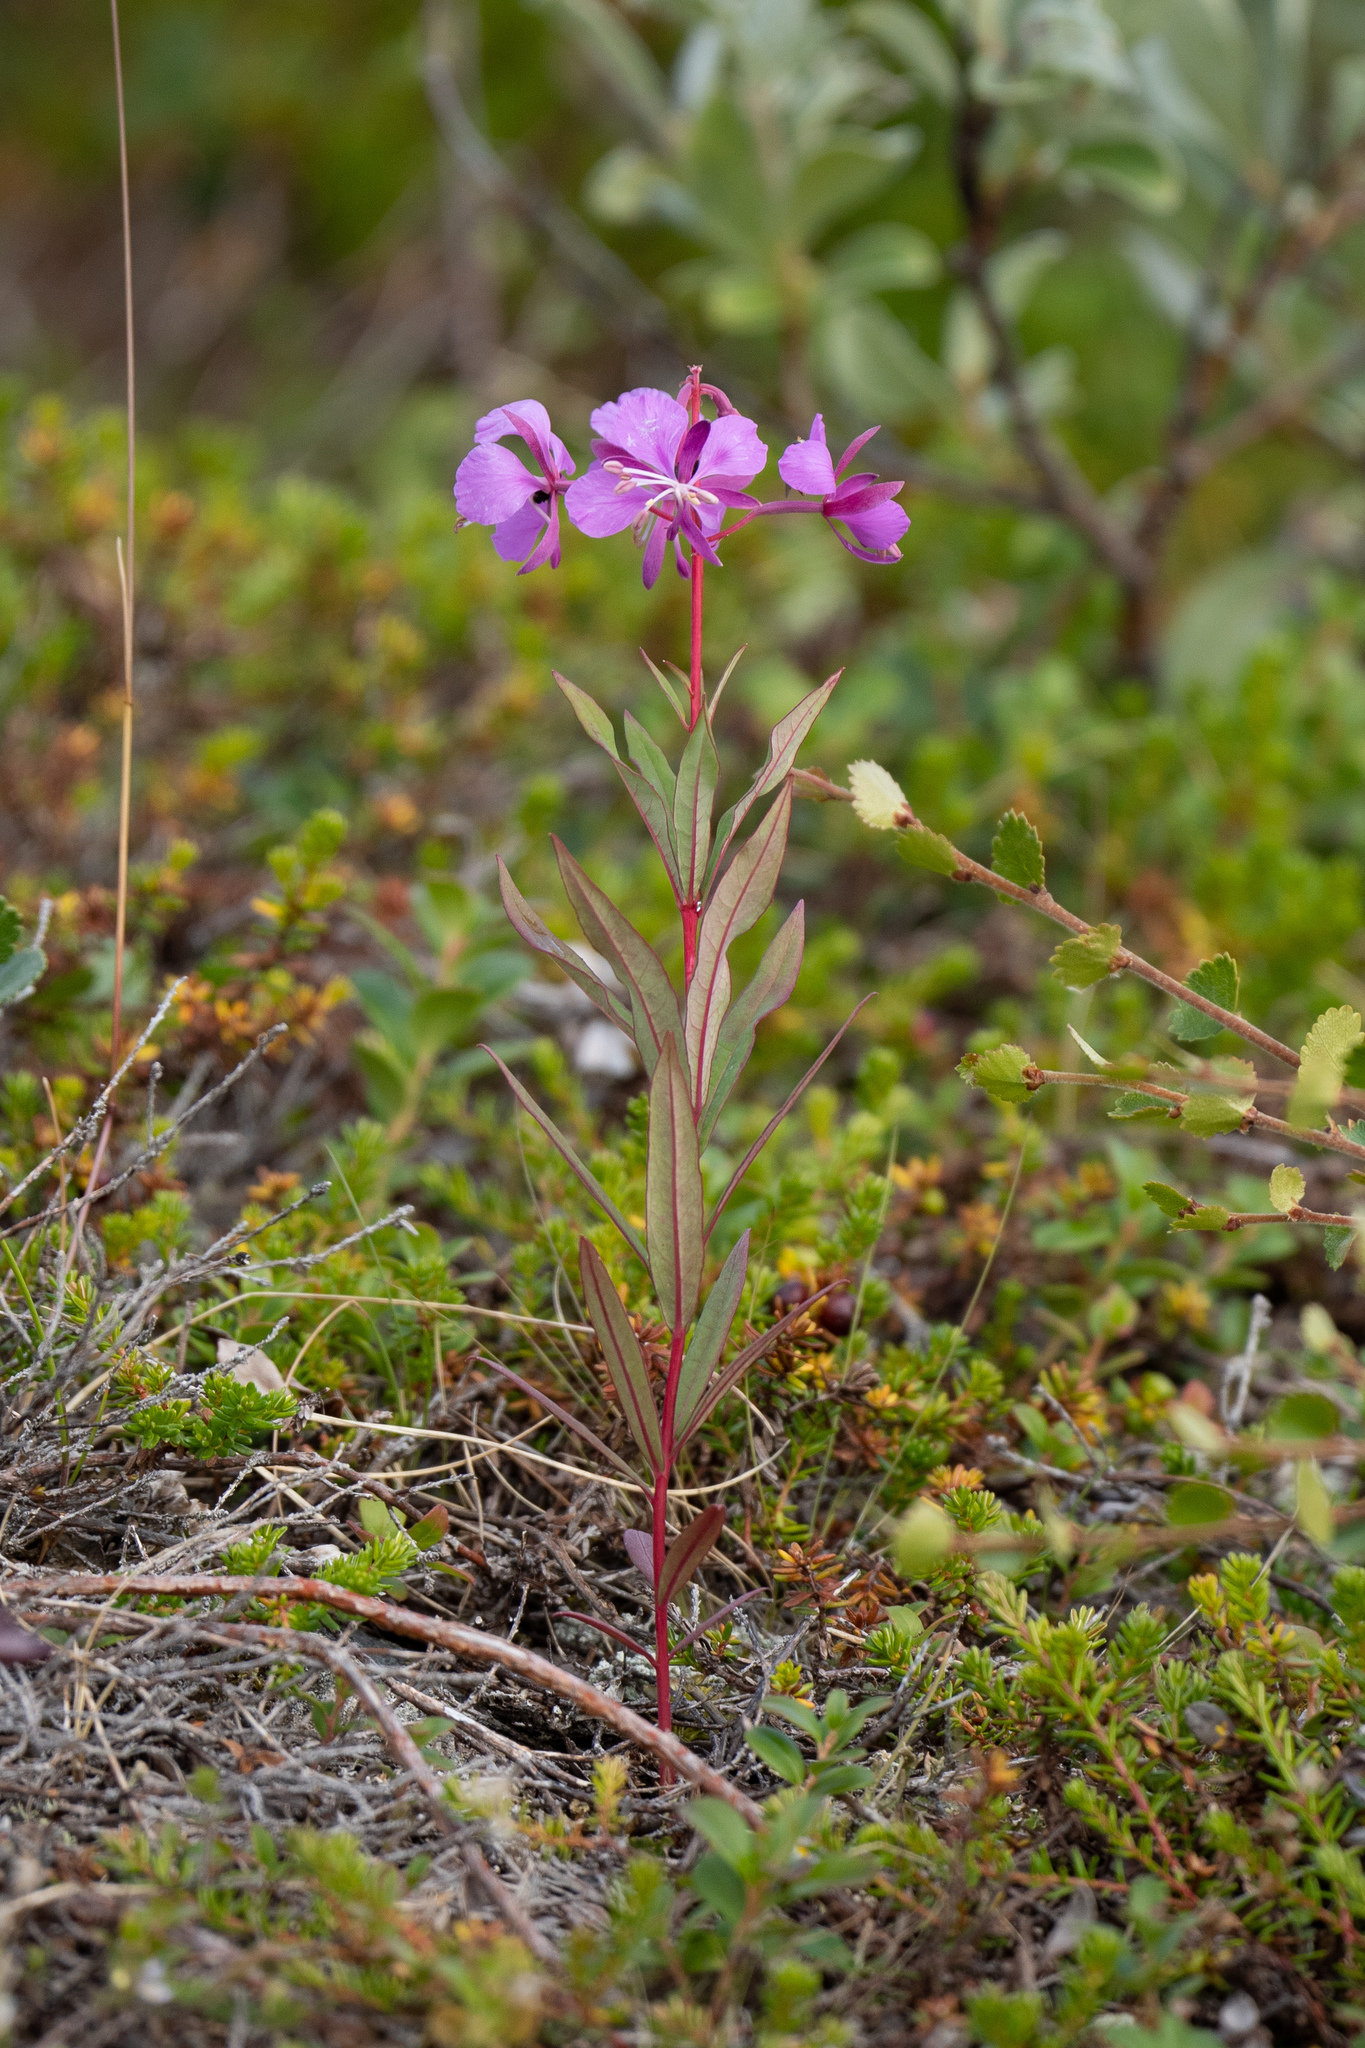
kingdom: Plantae
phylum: Tracheophyta
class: Magnoliopsida
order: Myrtales
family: Onagraceae
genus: Chamaenerion
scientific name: Chamaenerion angustifolium
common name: Fireweed
